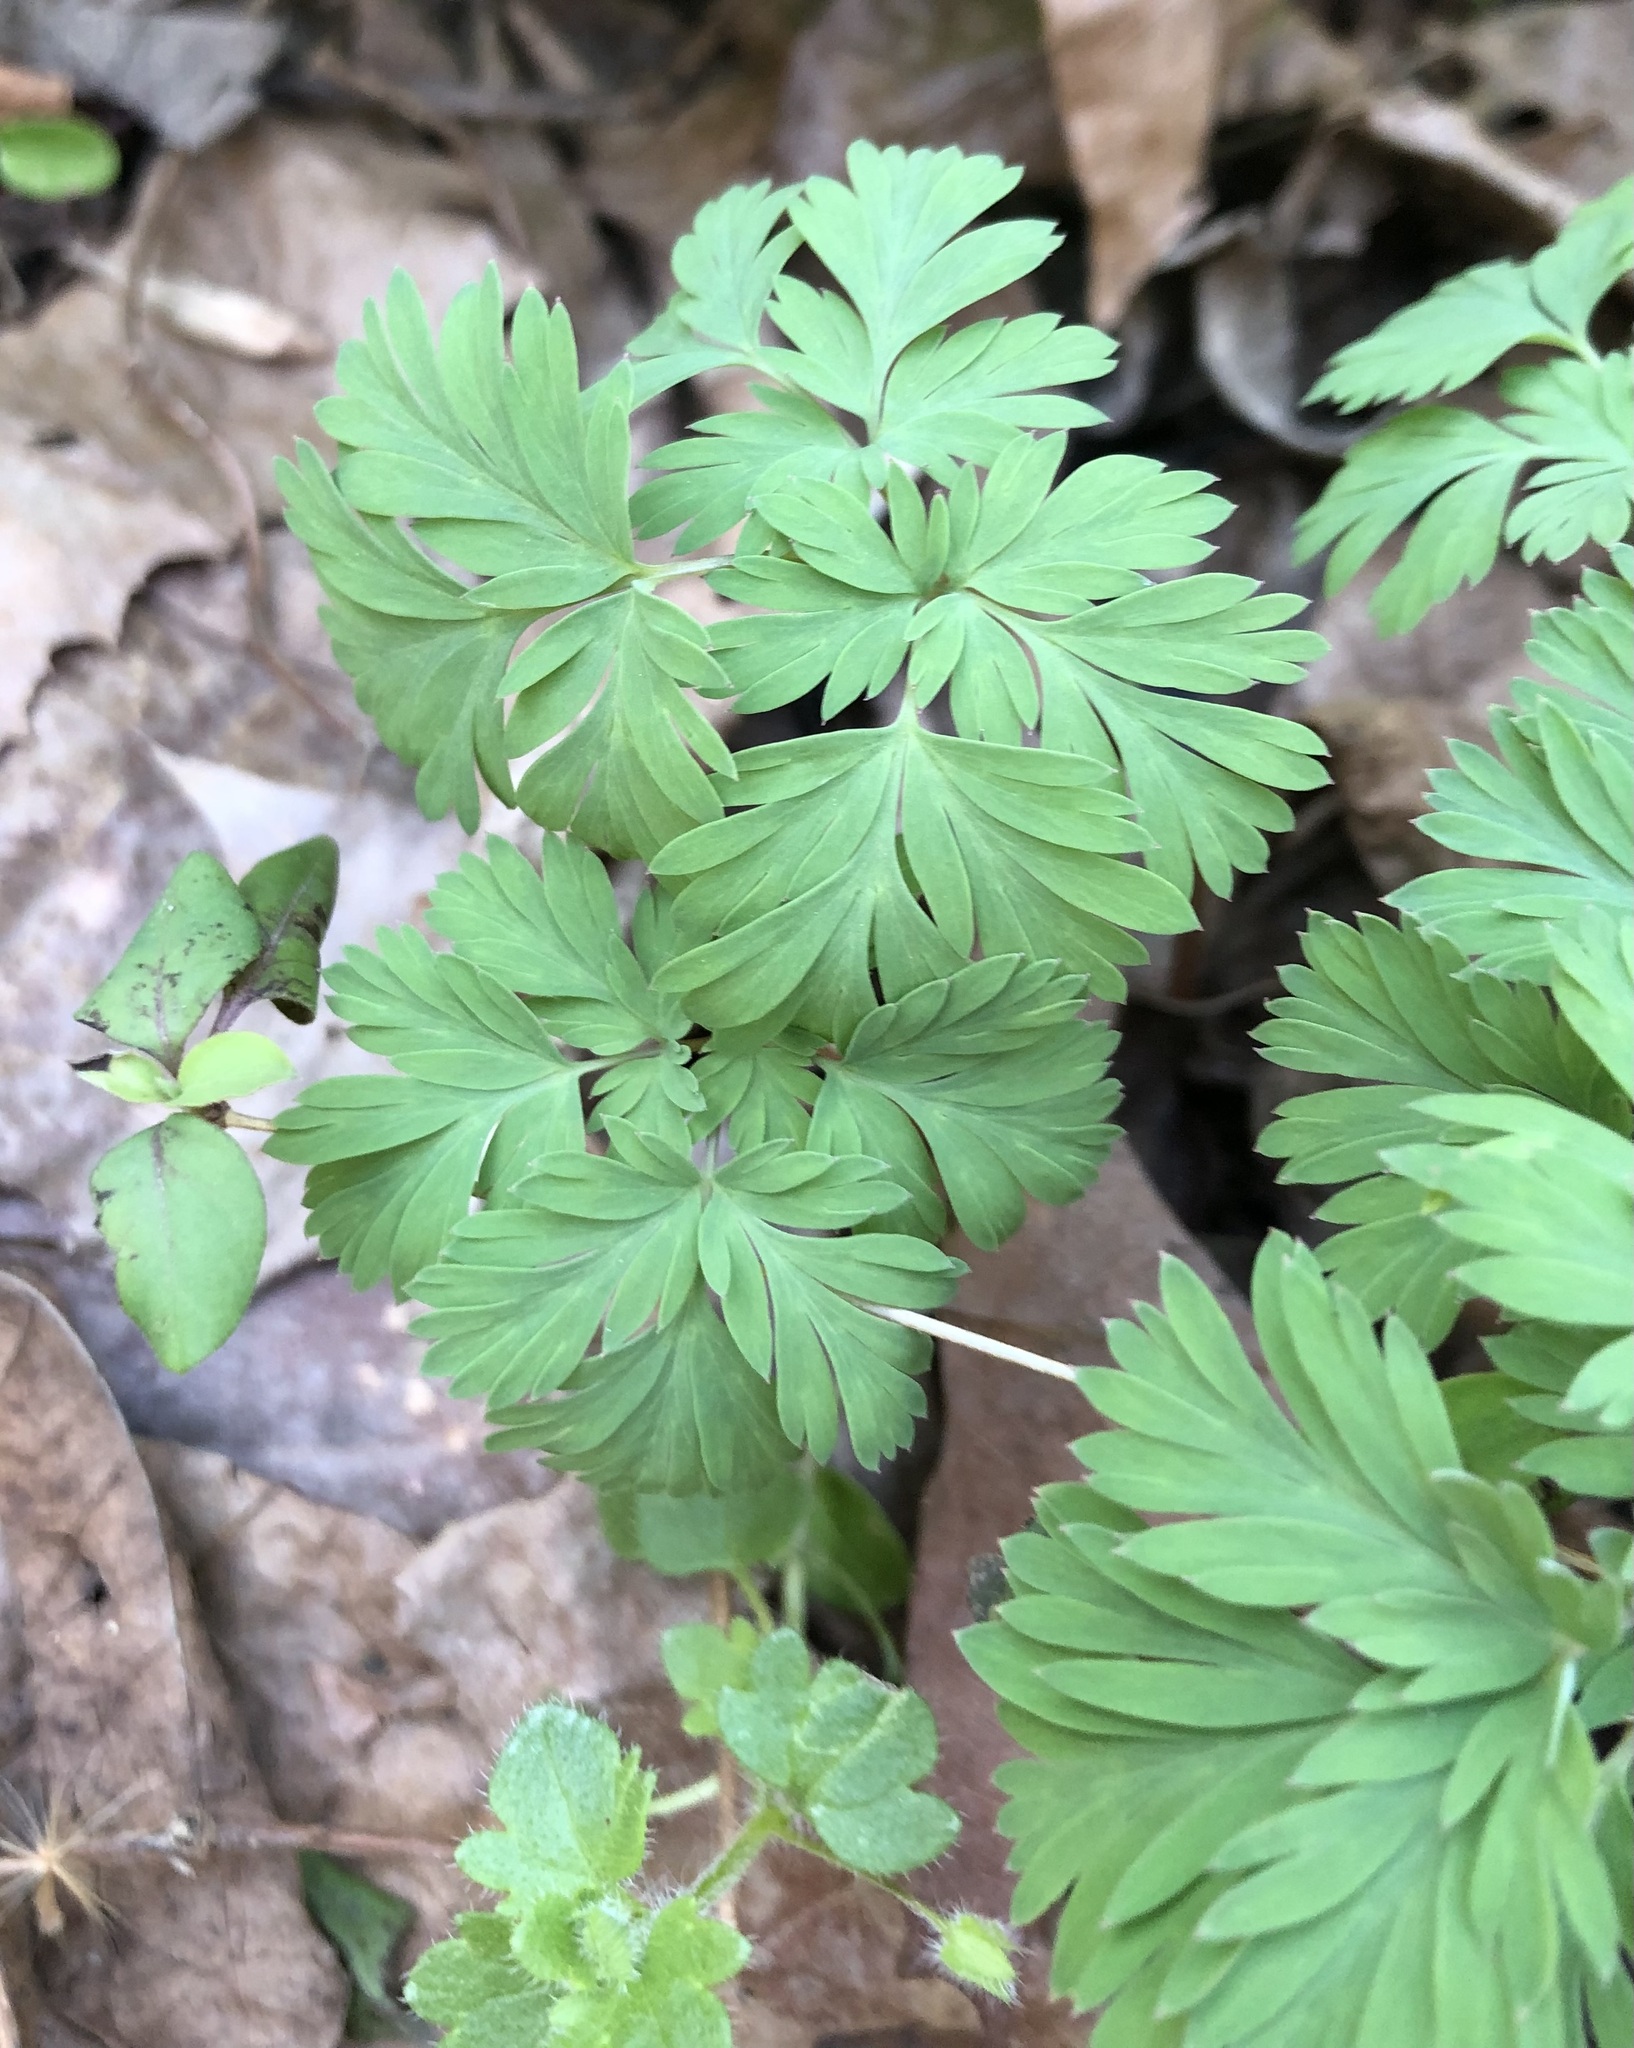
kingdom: Plantae
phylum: Tracheophyta
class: Magnoliopsida
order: Ranunculales
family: Papaveraceae
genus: Dicentra
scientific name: Dicentra cucullaria
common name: Dutchman's breeches
